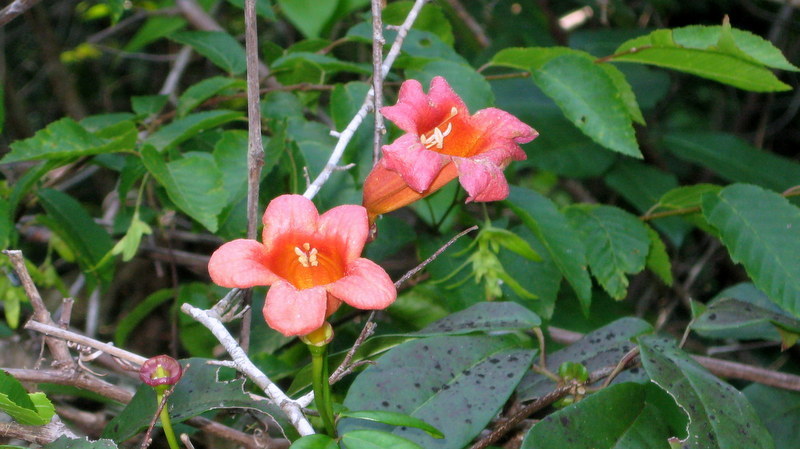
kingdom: Plantae
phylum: Tracheophyta
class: Magnoliopsida
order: Lamiales
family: Bignoniaceae
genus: Bignonia
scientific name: Bignonia capreolata
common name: Crossvine
